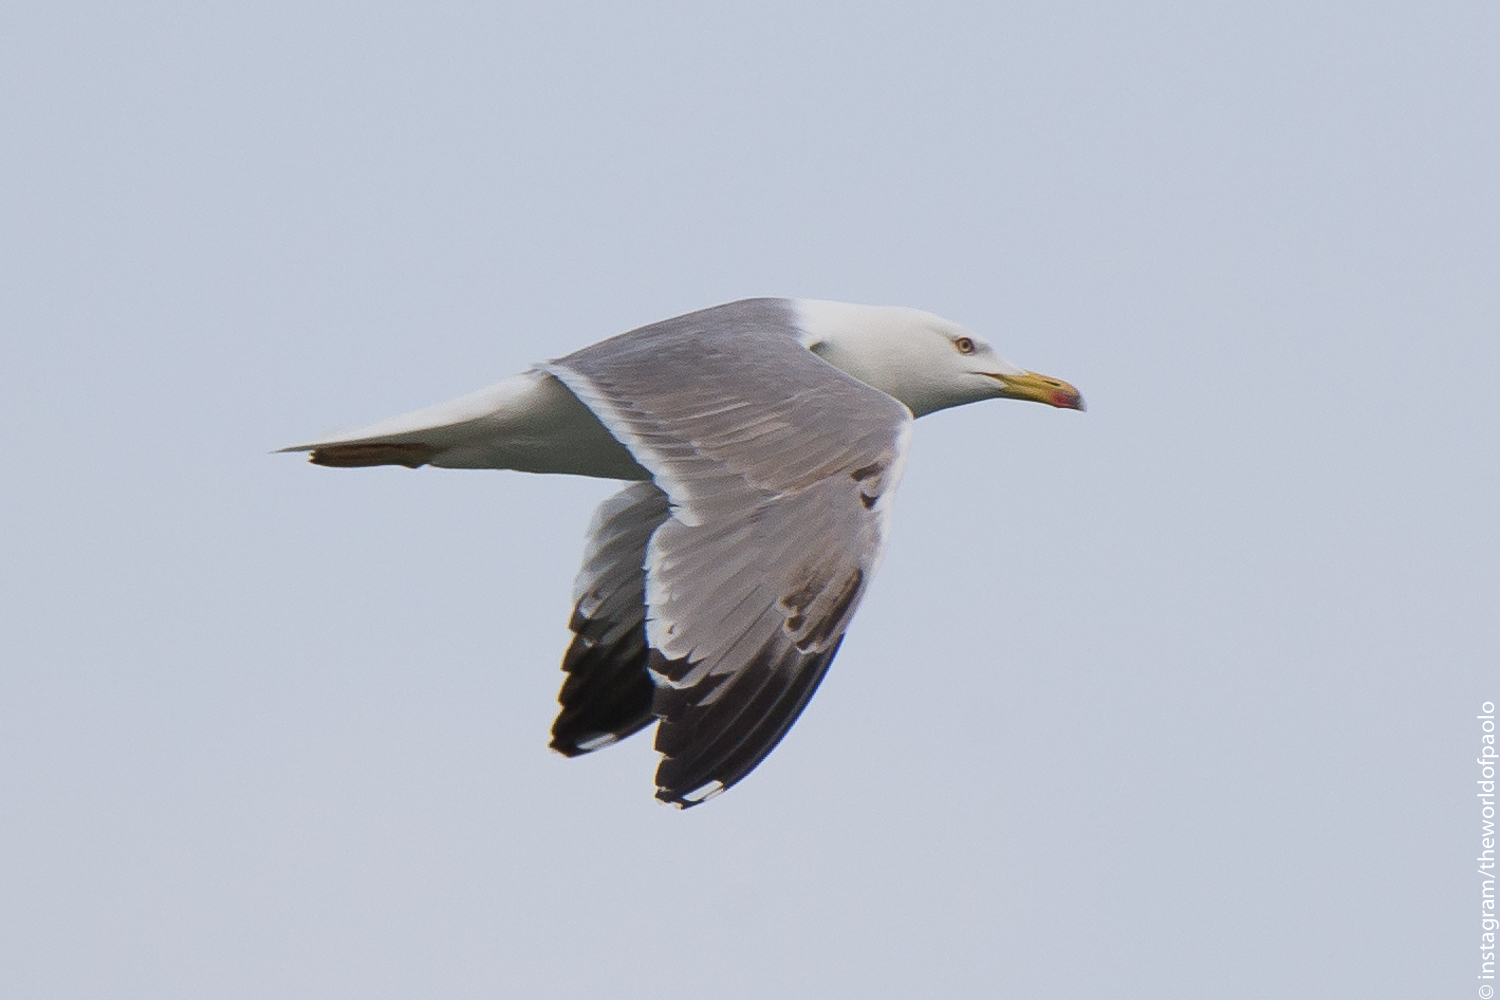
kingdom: Animalia
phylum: Chordata
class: Aves
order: Charadriiformes
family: Laridae
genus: Larus
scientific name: Larus michahellis
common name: Yellow-legged gull
